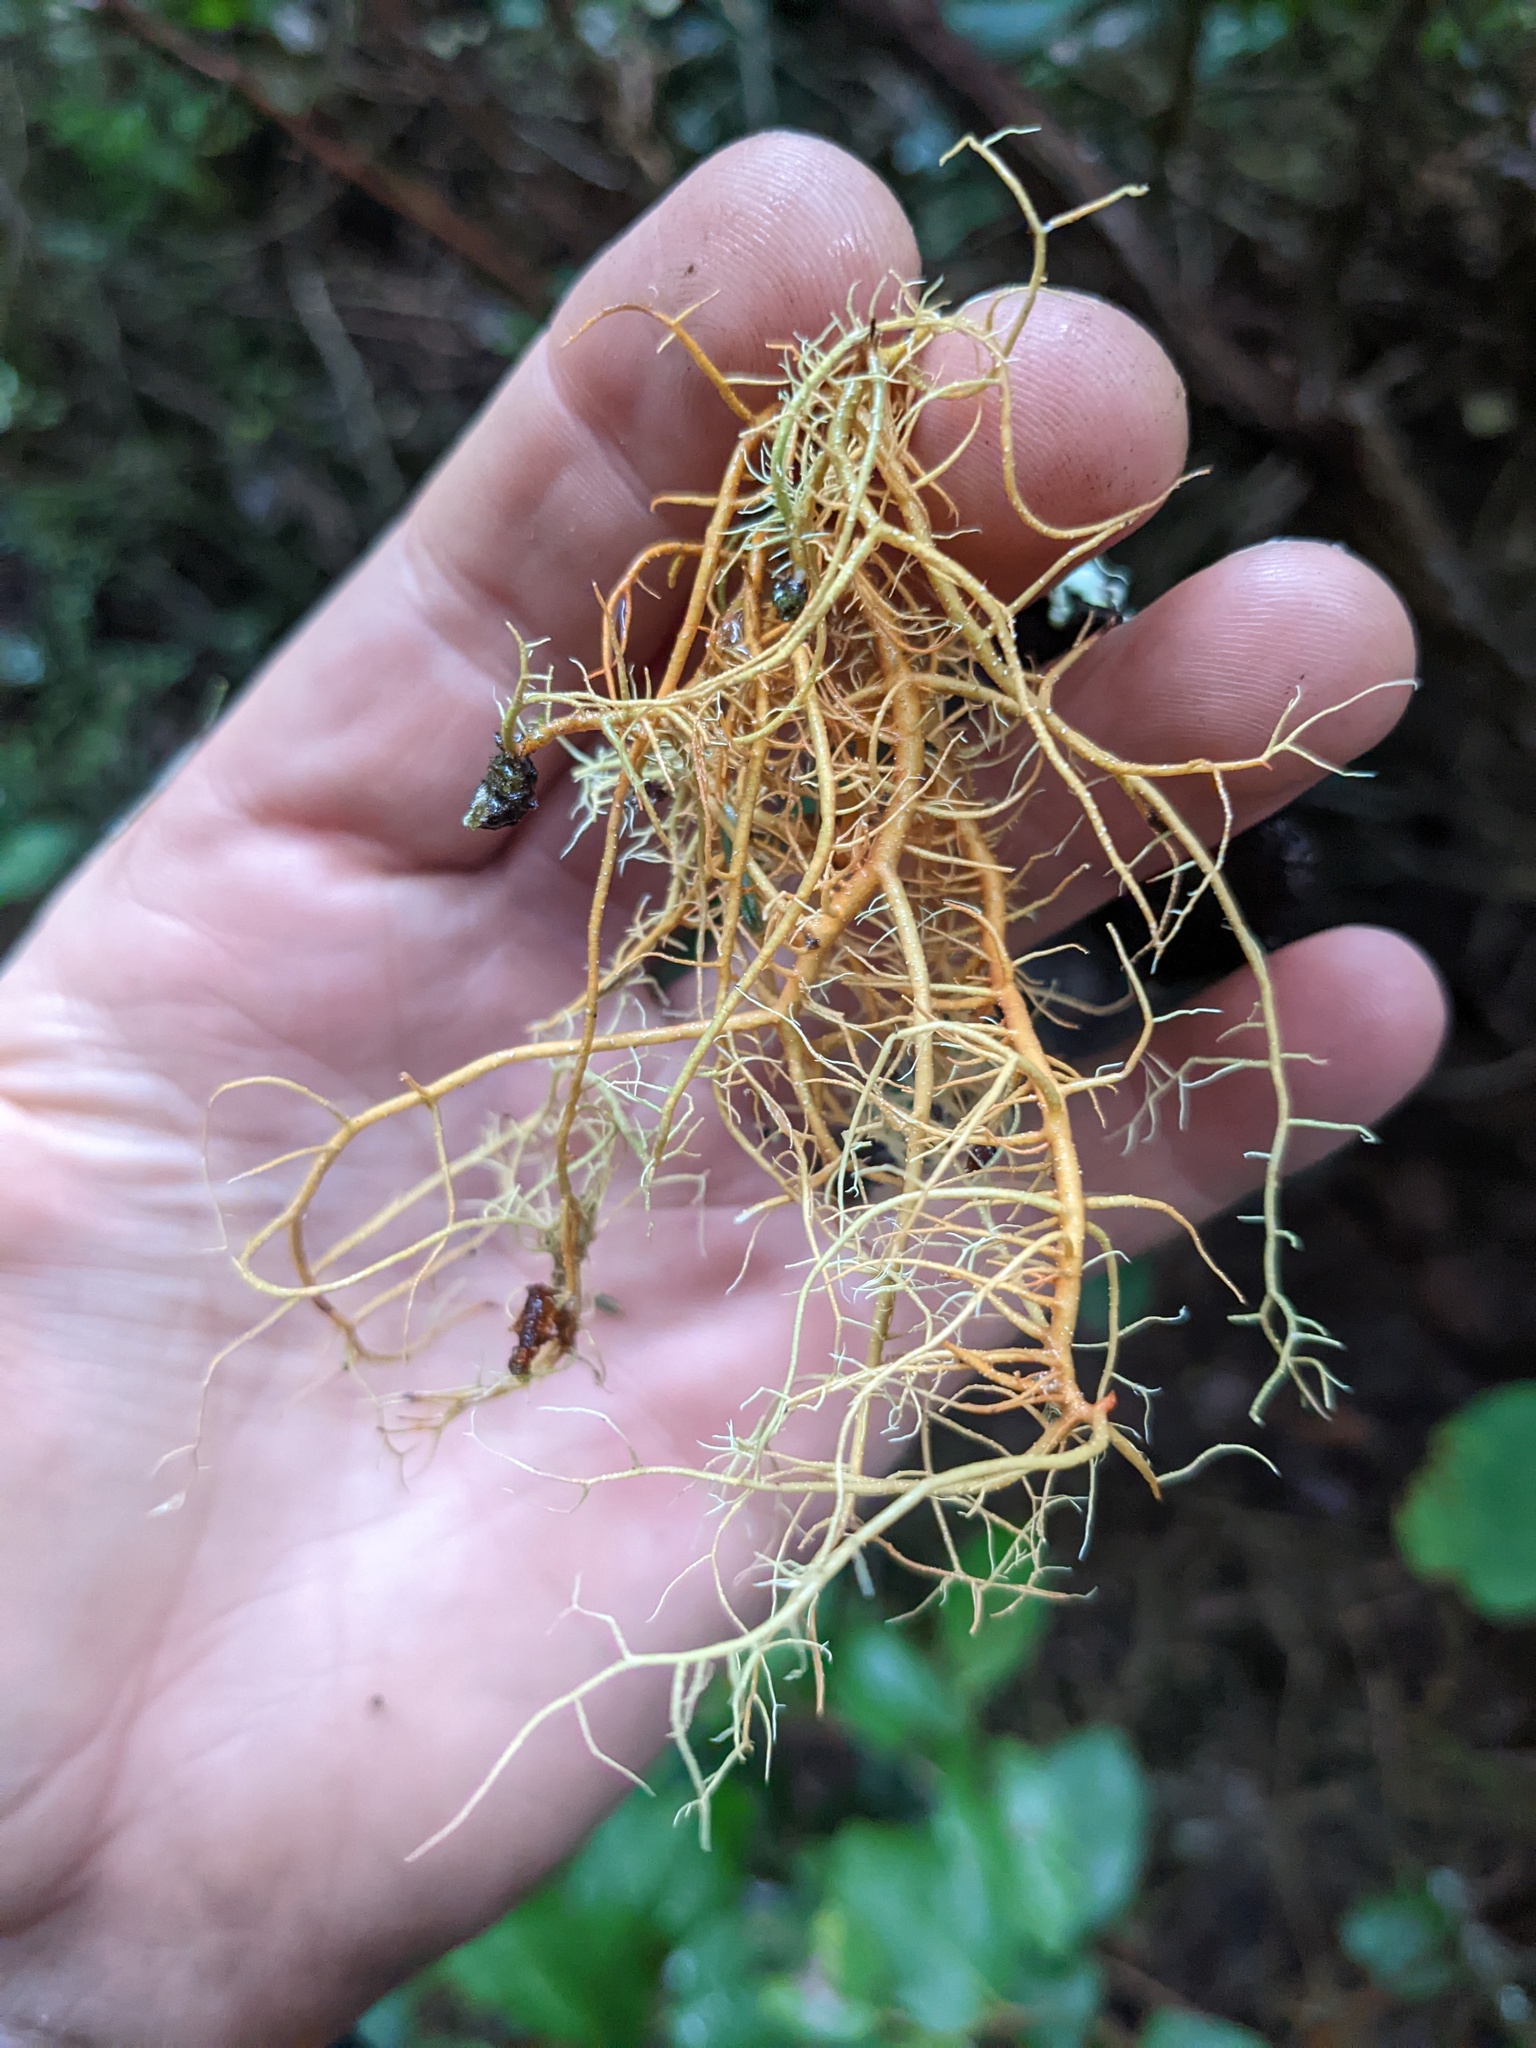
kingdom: Fungi
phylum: Ascomycota
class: Lecanoromycetes
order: Lecanorales
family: Parmeliaceae
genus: Usnea
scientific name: Usnea rubicunda
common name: Red beard lichen
